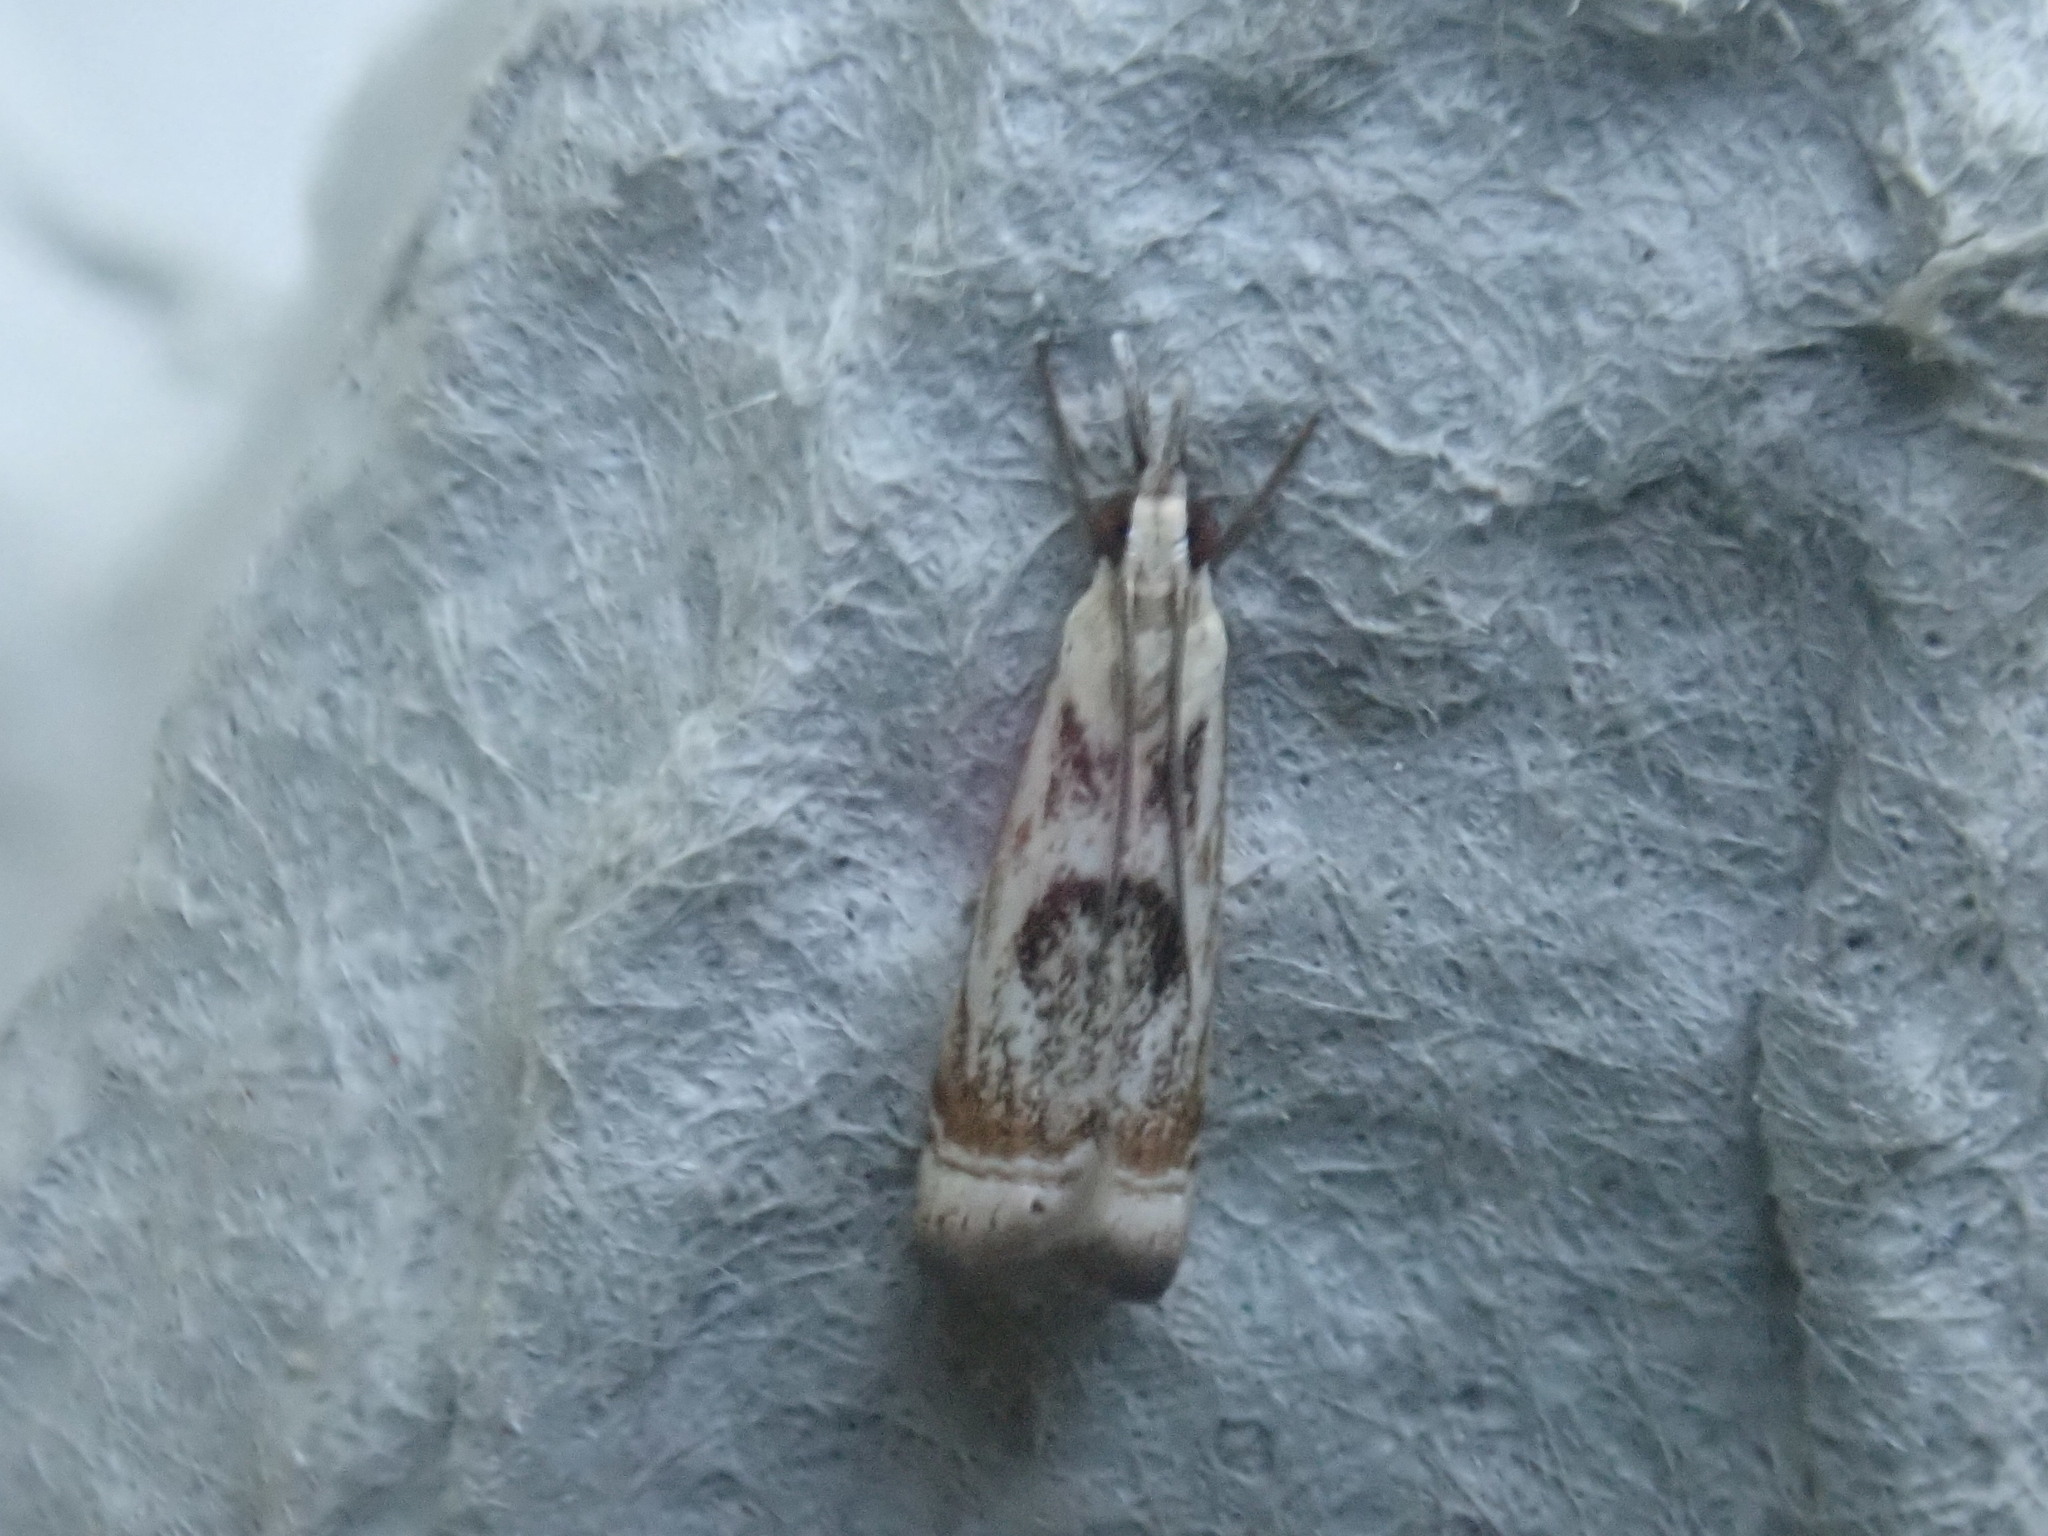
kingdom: Animalia
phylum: Arthropoda
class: Insecta
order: Lepidoptera
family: Crambidae
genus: Microcrambus
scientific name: Microcrambus elegans
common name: Elegant grass-veneer
